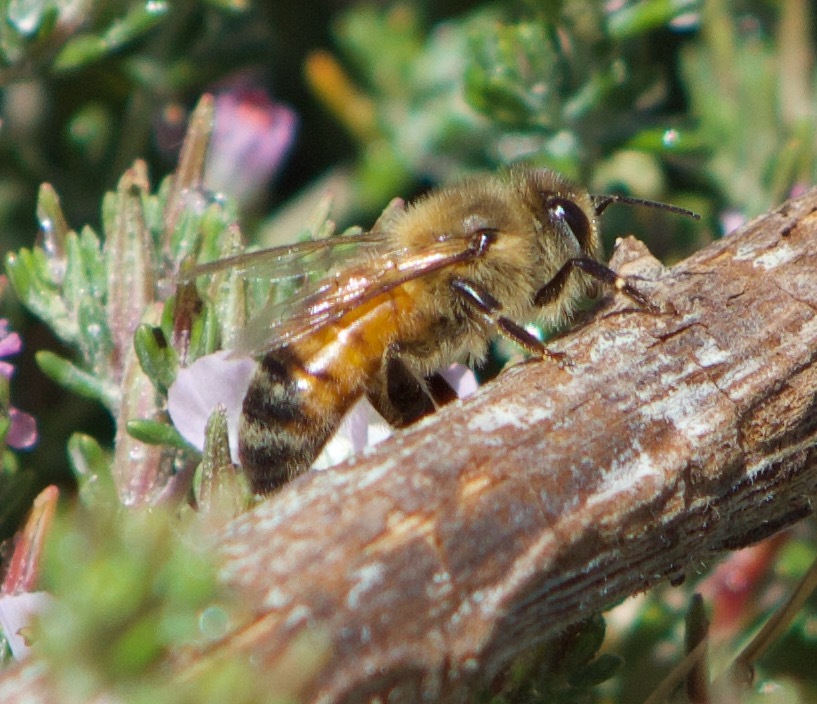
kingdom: Animalia
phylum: Arthropoda
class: Insecta
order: Hymenoptera
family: Apidae
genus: Apis
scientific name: Apis mellifera
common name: Honey bee
